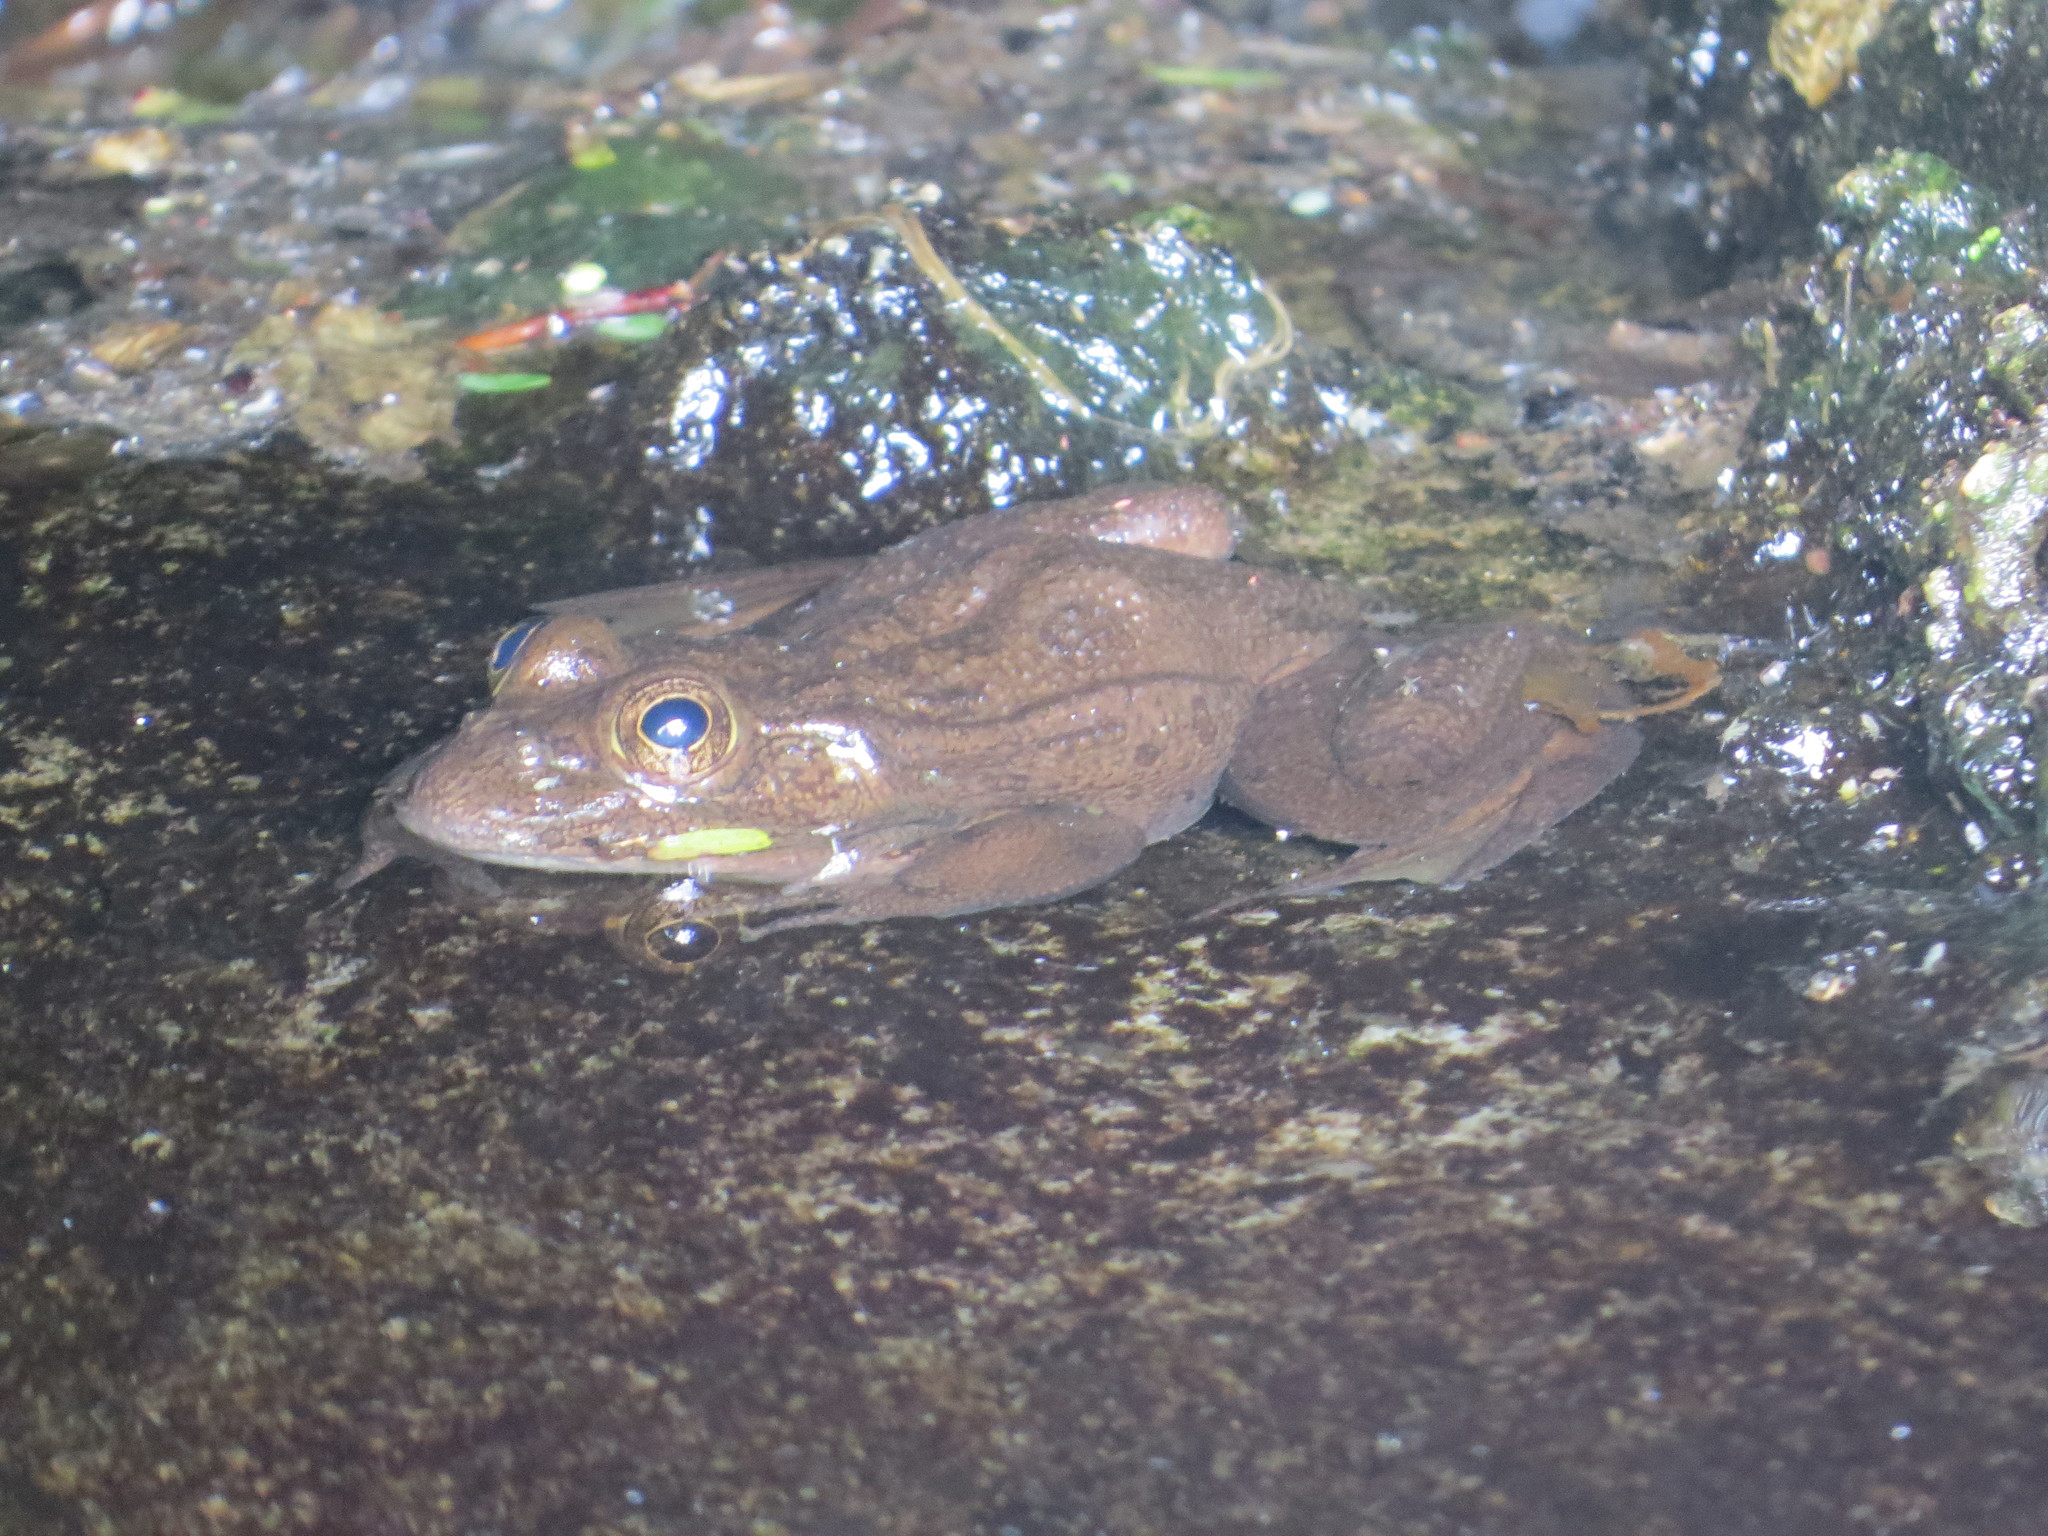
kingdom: Animalia
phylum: Chordata
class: Amphibia
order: Anura
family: Ranidae
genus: Lithobates
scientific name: Lithobates montezumae
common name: Montezuma leopard frog
